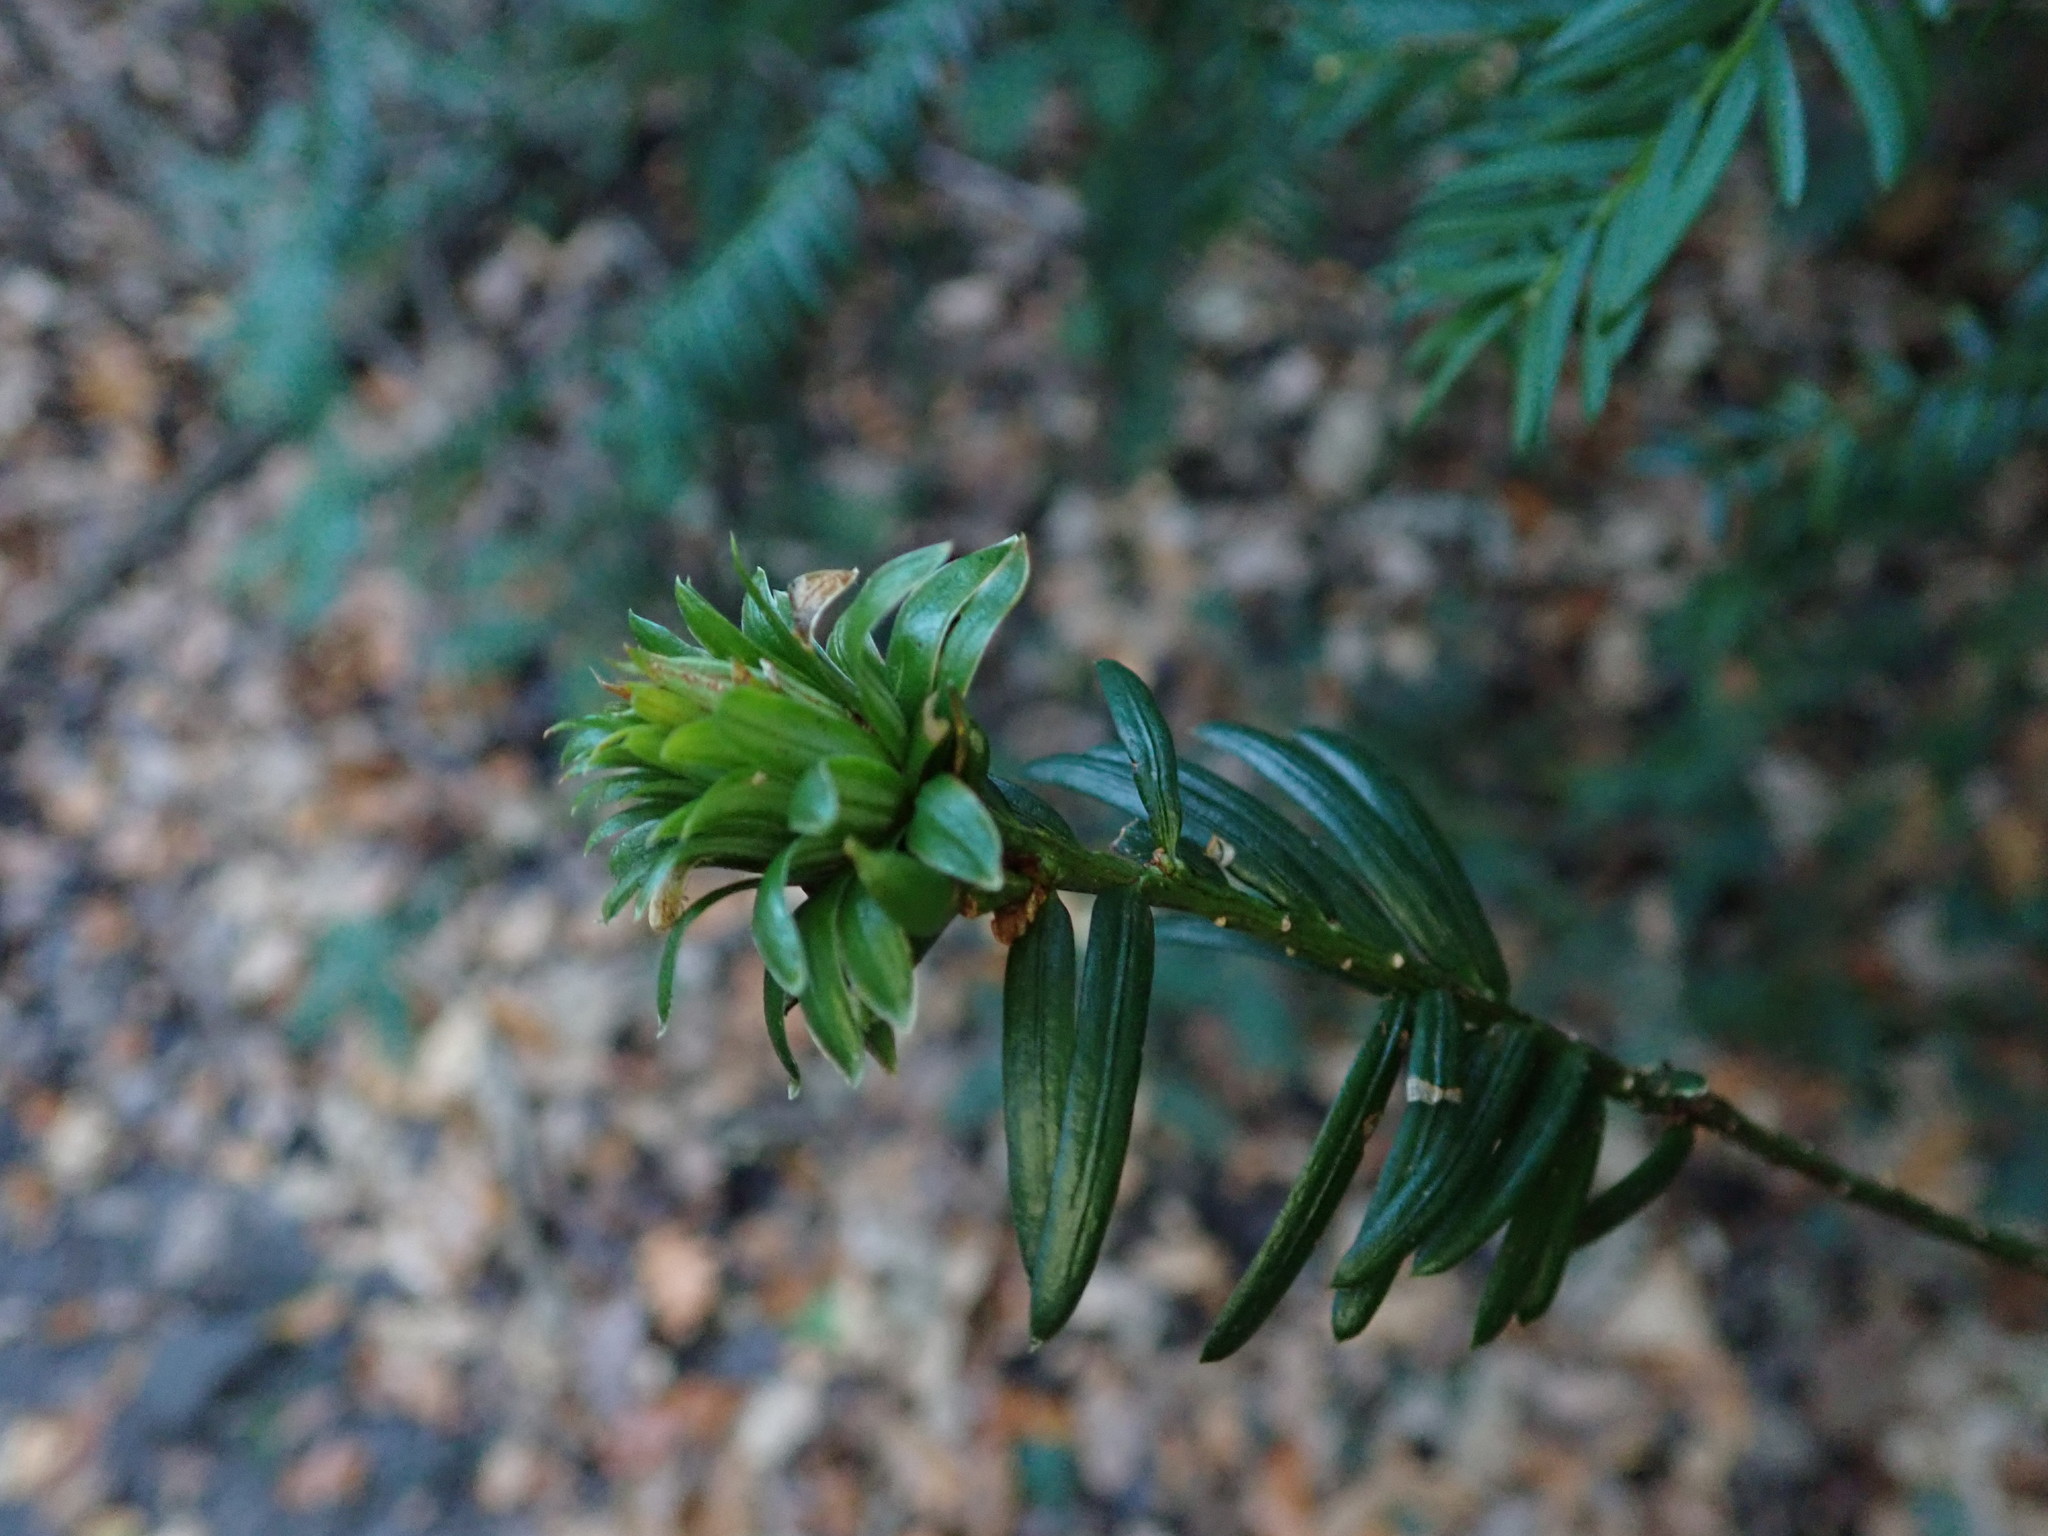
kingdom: Animalia
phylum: Arthropoda
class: Insecta
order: Diptera
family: Cecidomyiidae
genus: Taxomyia
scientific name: Taxomyia taxi
